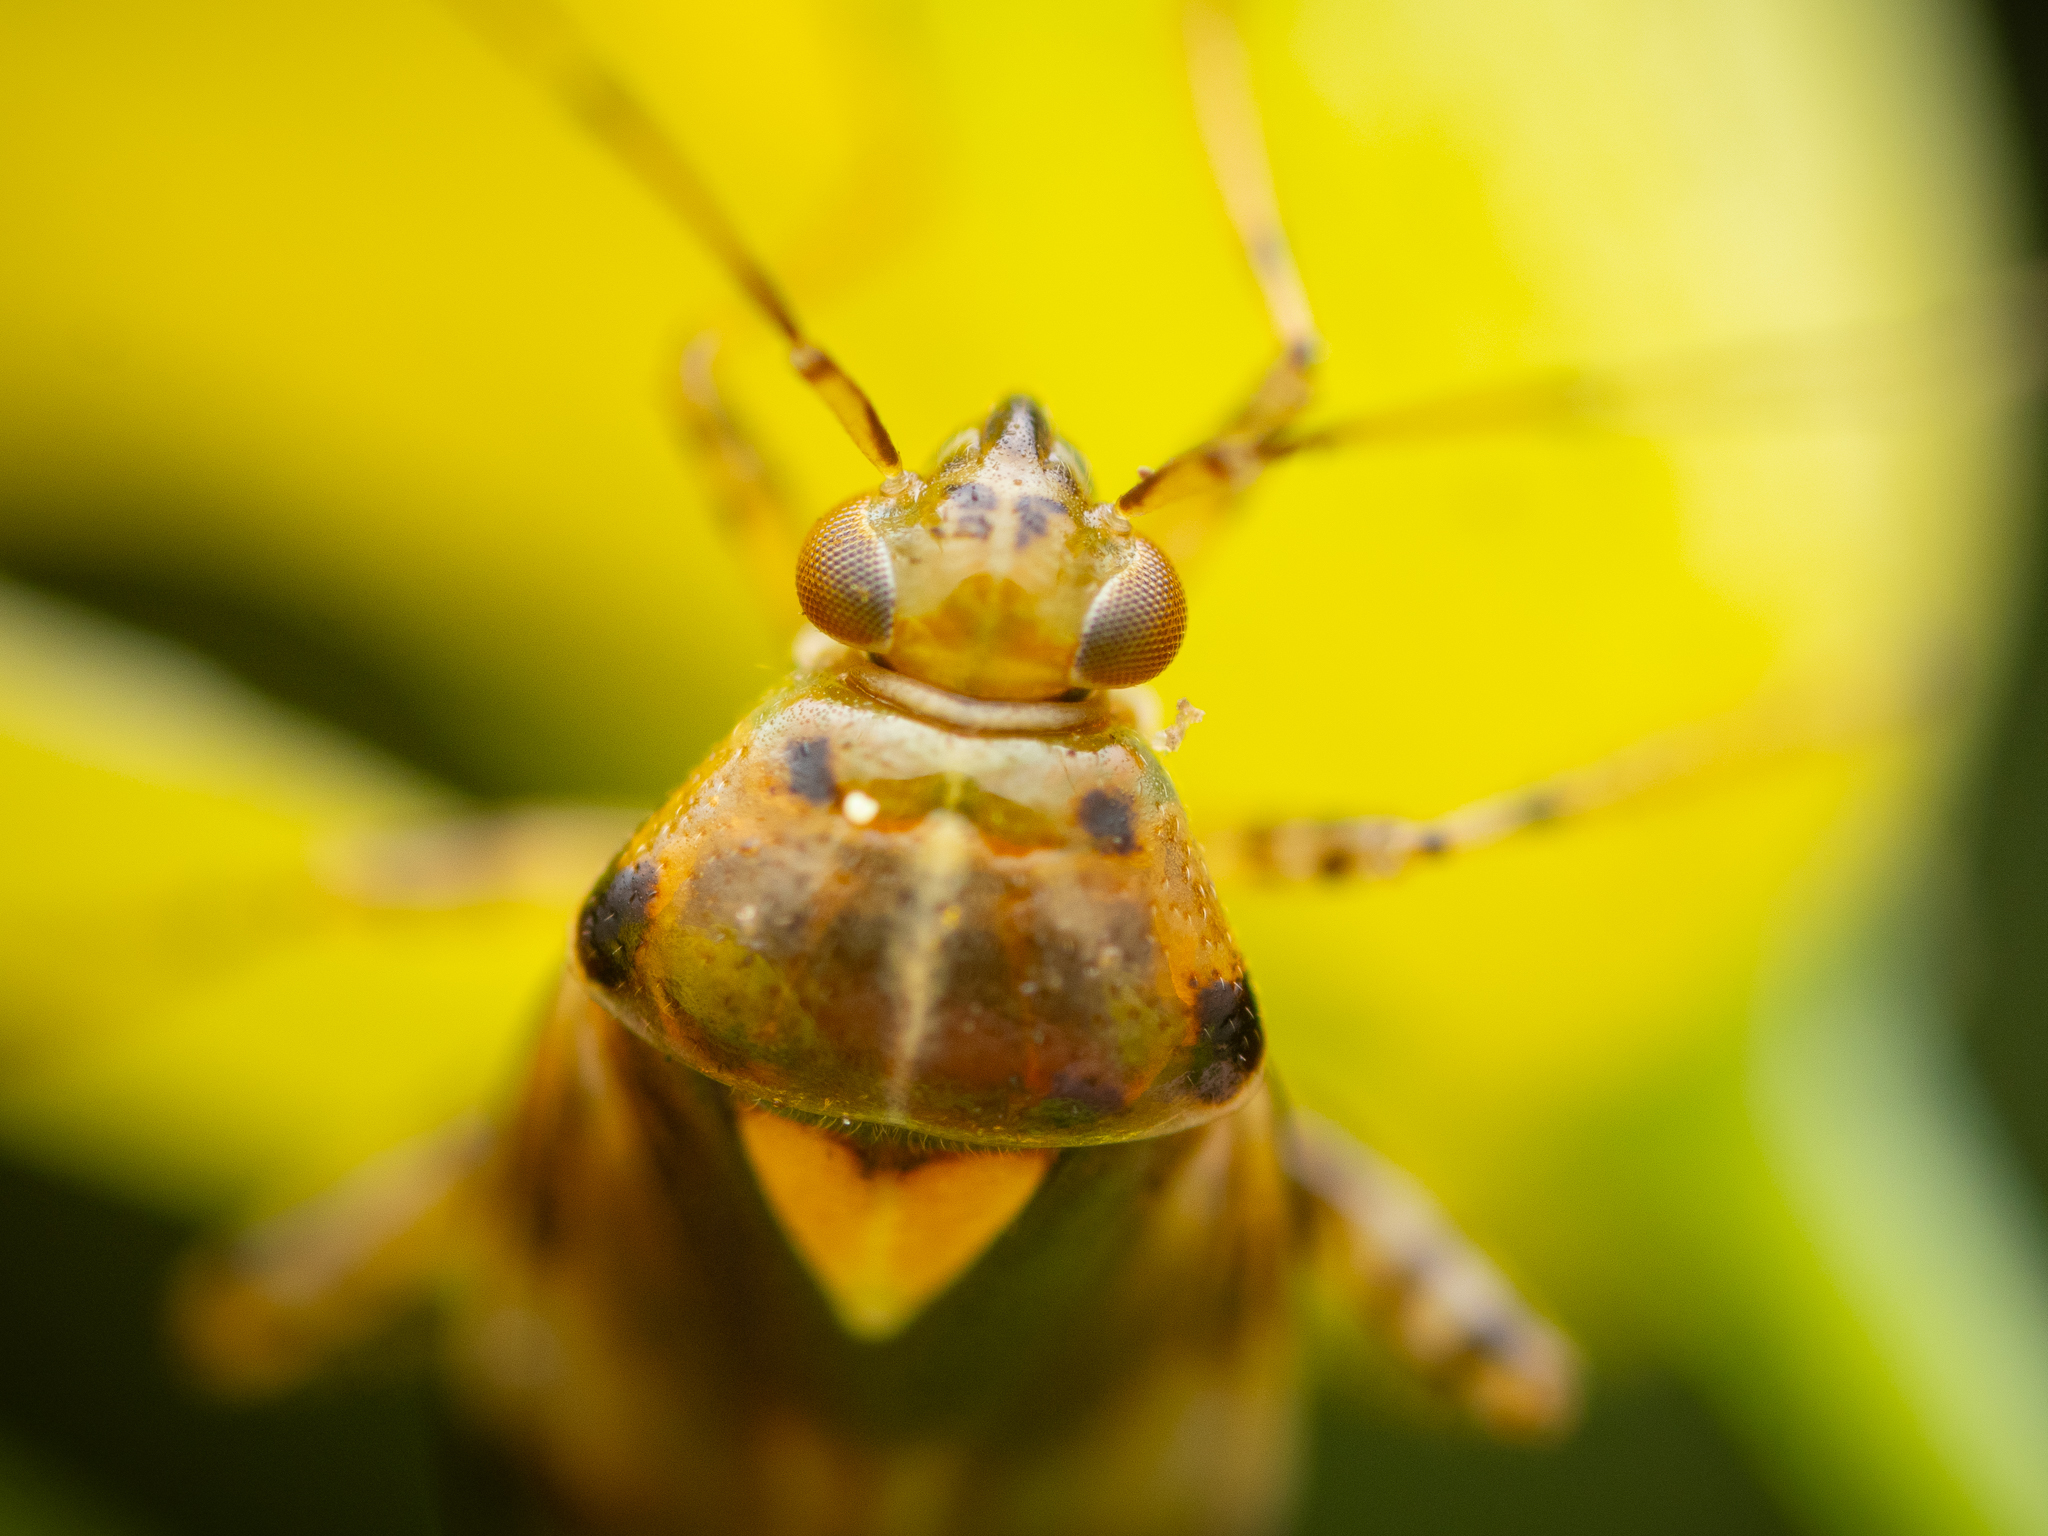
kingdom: Animalia
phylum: Arthropoda
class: Insecta
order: Hemiptera
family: Miridae
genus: Liocoris
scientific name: Liocoris tripustulatus
